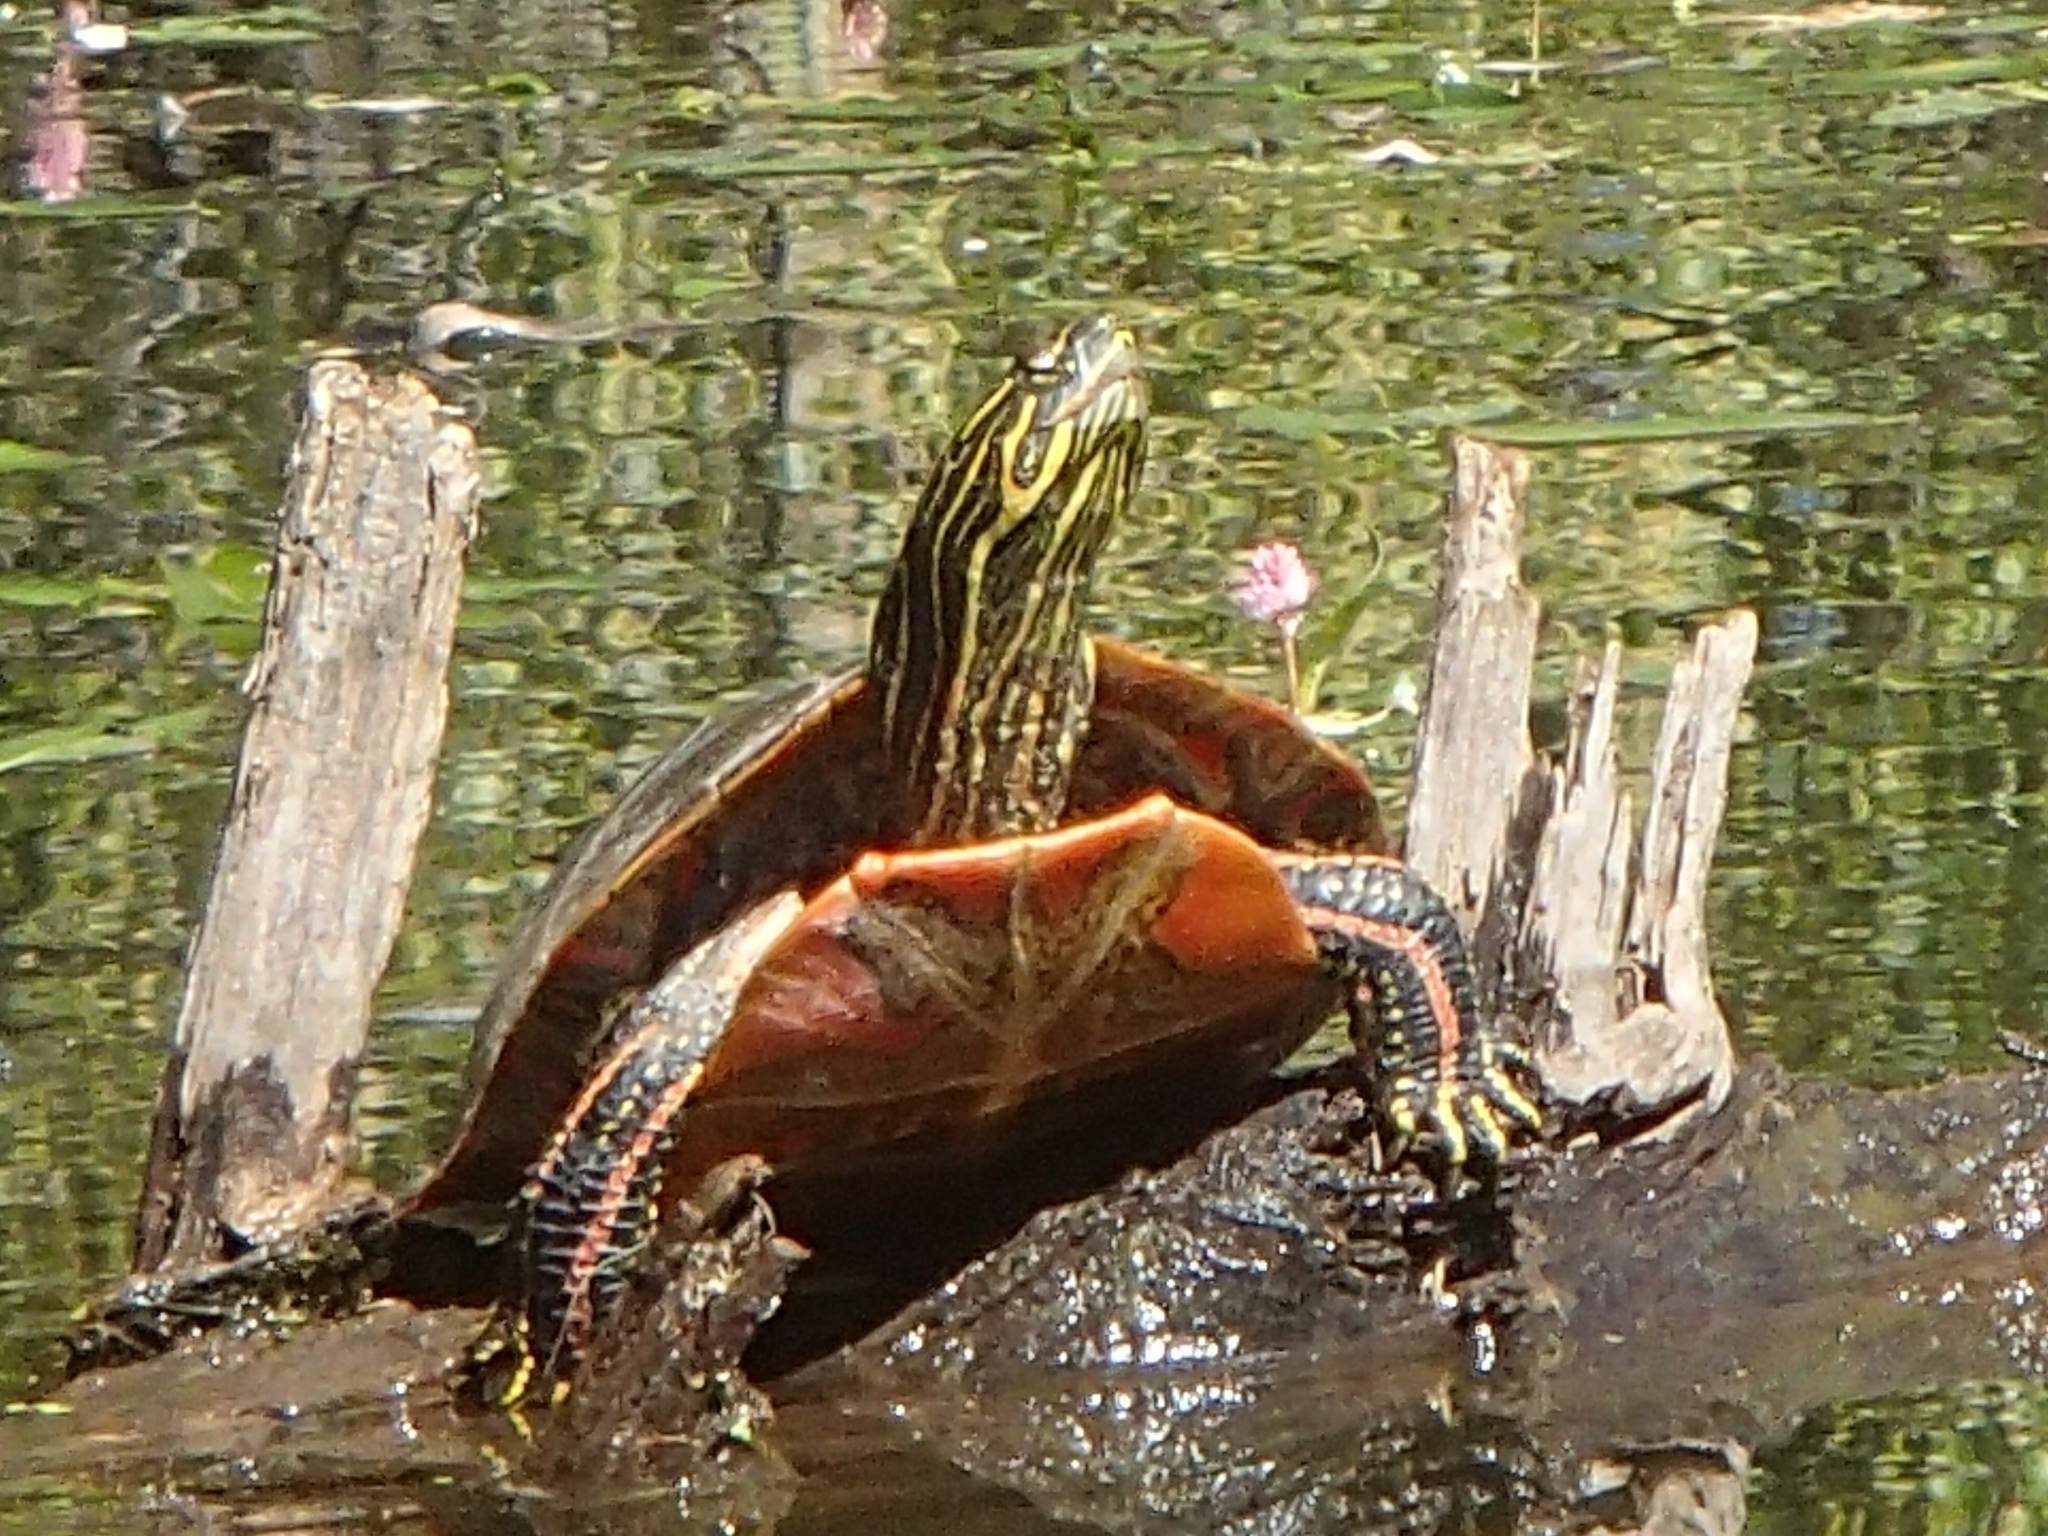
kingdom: Animalia
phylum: Chordata
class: Testudines
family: Emydidae
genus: Chrysemys
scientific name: Chrysemys picta
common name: Painted turtle
